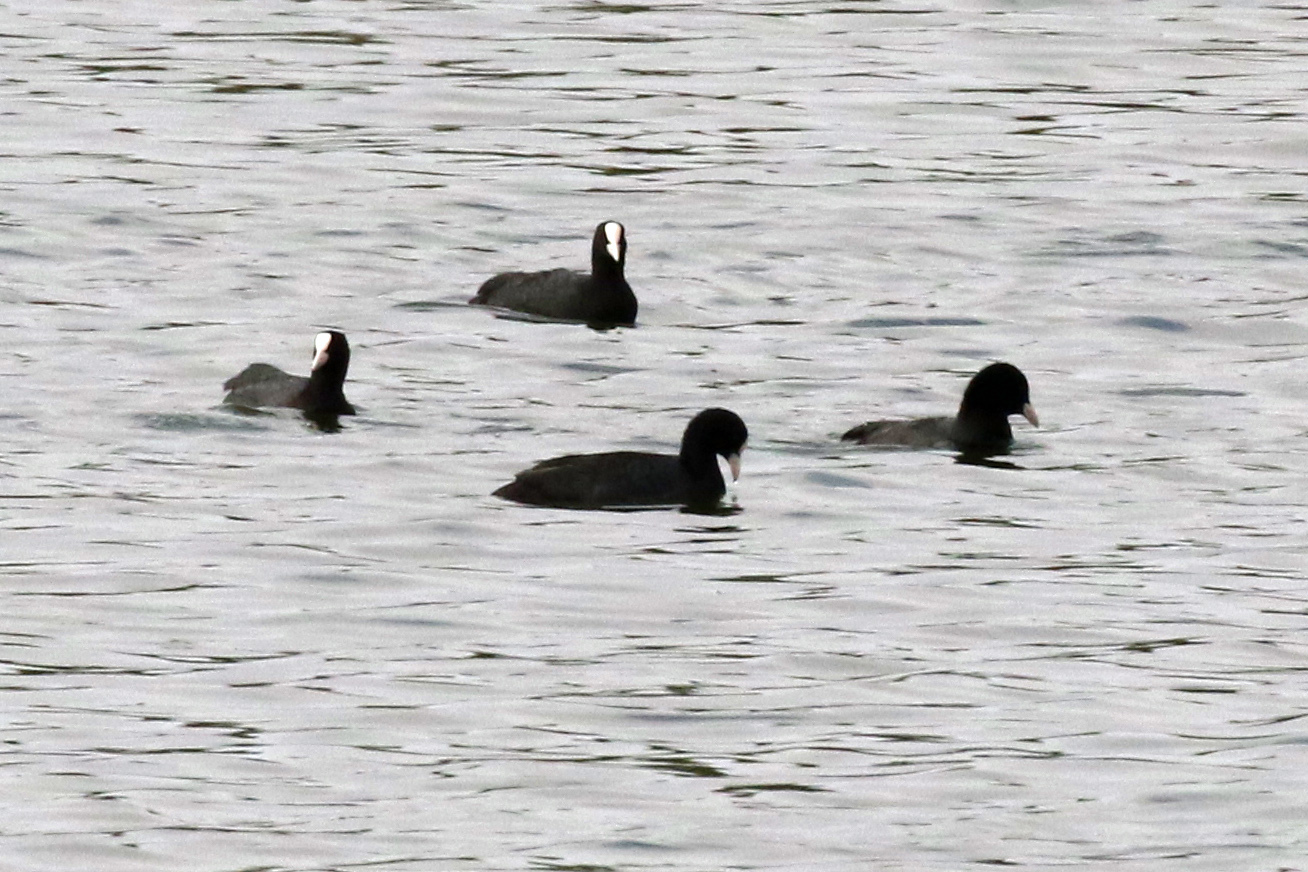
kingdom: Animalia
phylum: Chordata
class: Aves
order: Gruiformes
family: Rallidae
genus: Fulica
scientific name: Fulica atra
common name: Eurasian coot
